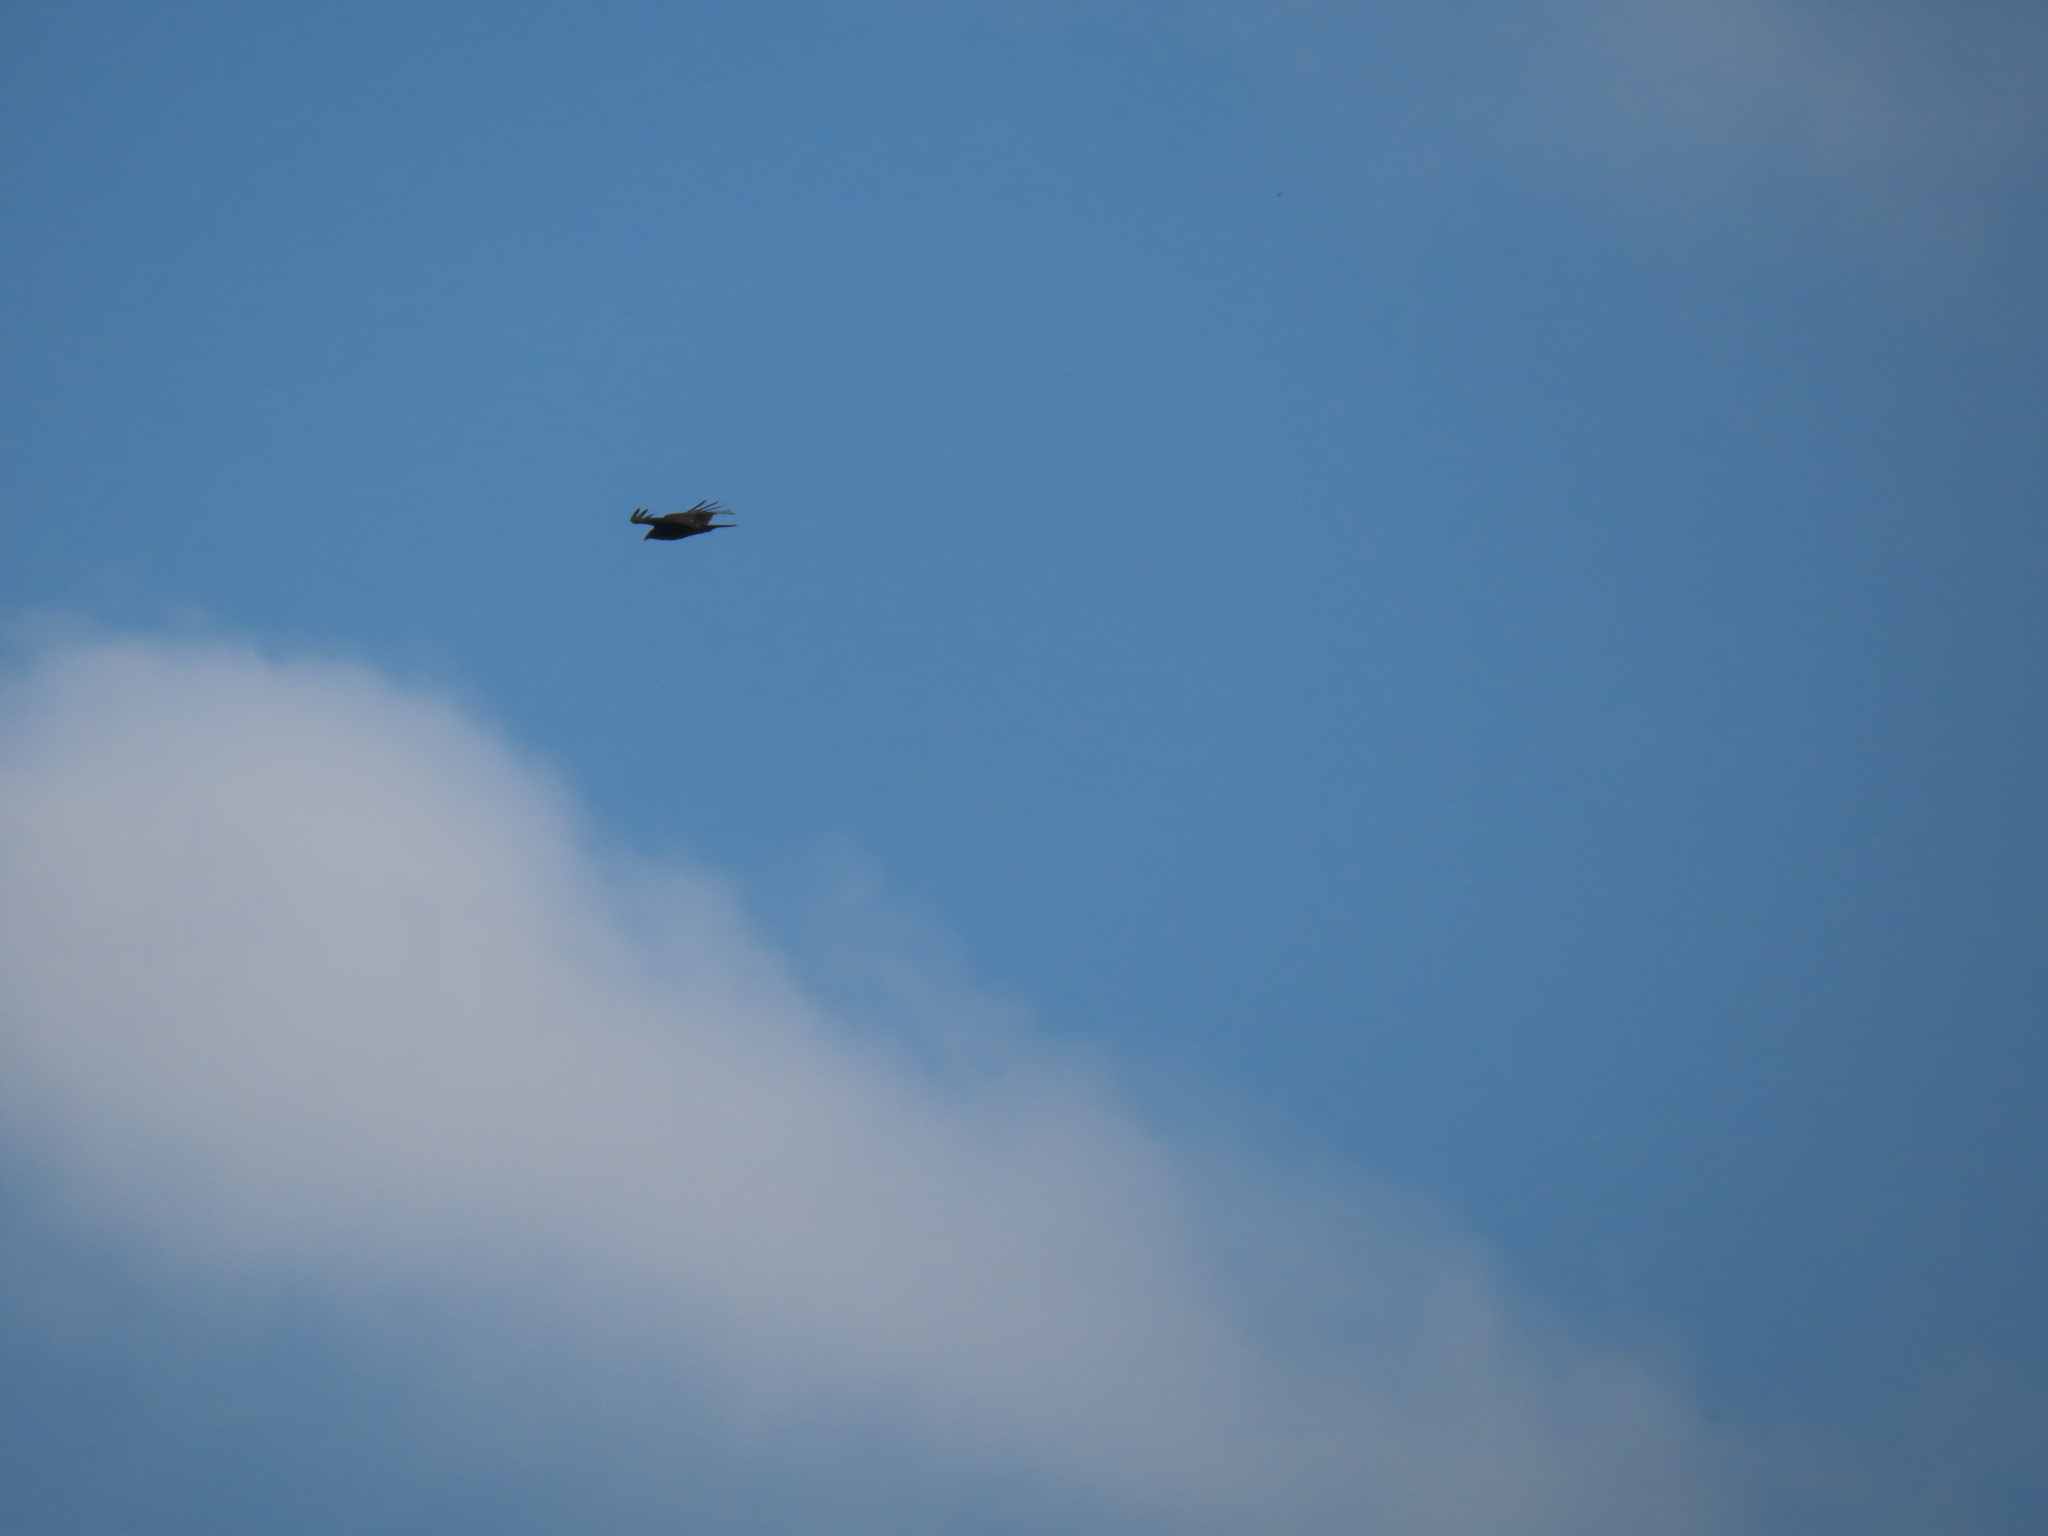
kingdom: Animalia
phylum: Chordata
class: Aves
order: Accipitriformes
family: Cathartidae
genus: Cathartes
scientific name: Cathartes aura
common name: Turkey vulture
